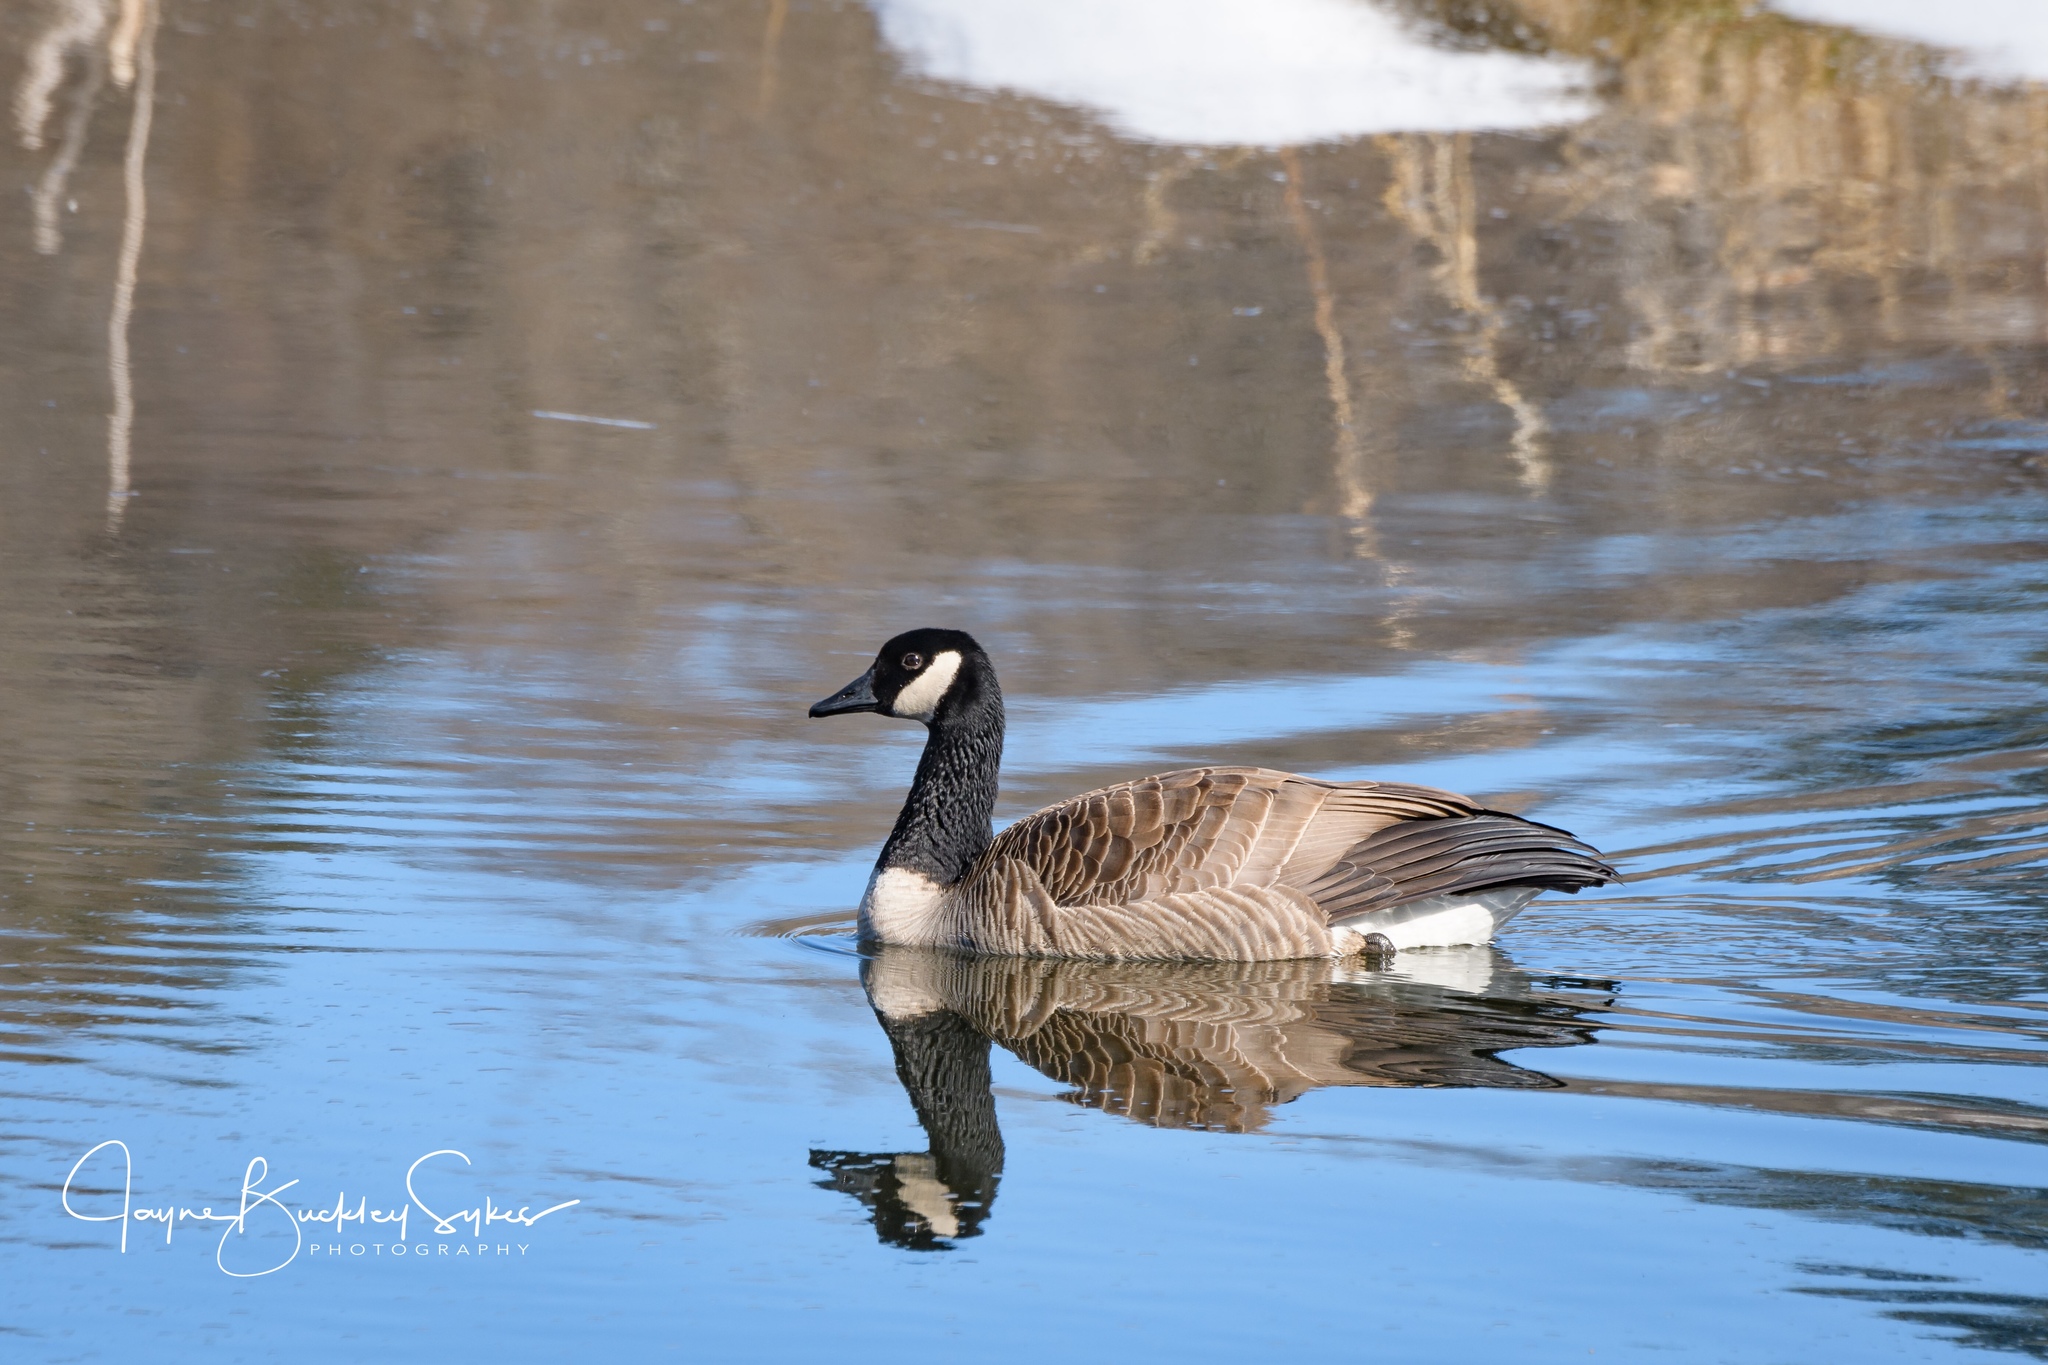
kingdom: Animalia
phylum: Chordata
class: Aves
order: Anseriformes
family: Anatidae
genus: Branta
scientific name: Branta canadensis
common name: Canada goose
